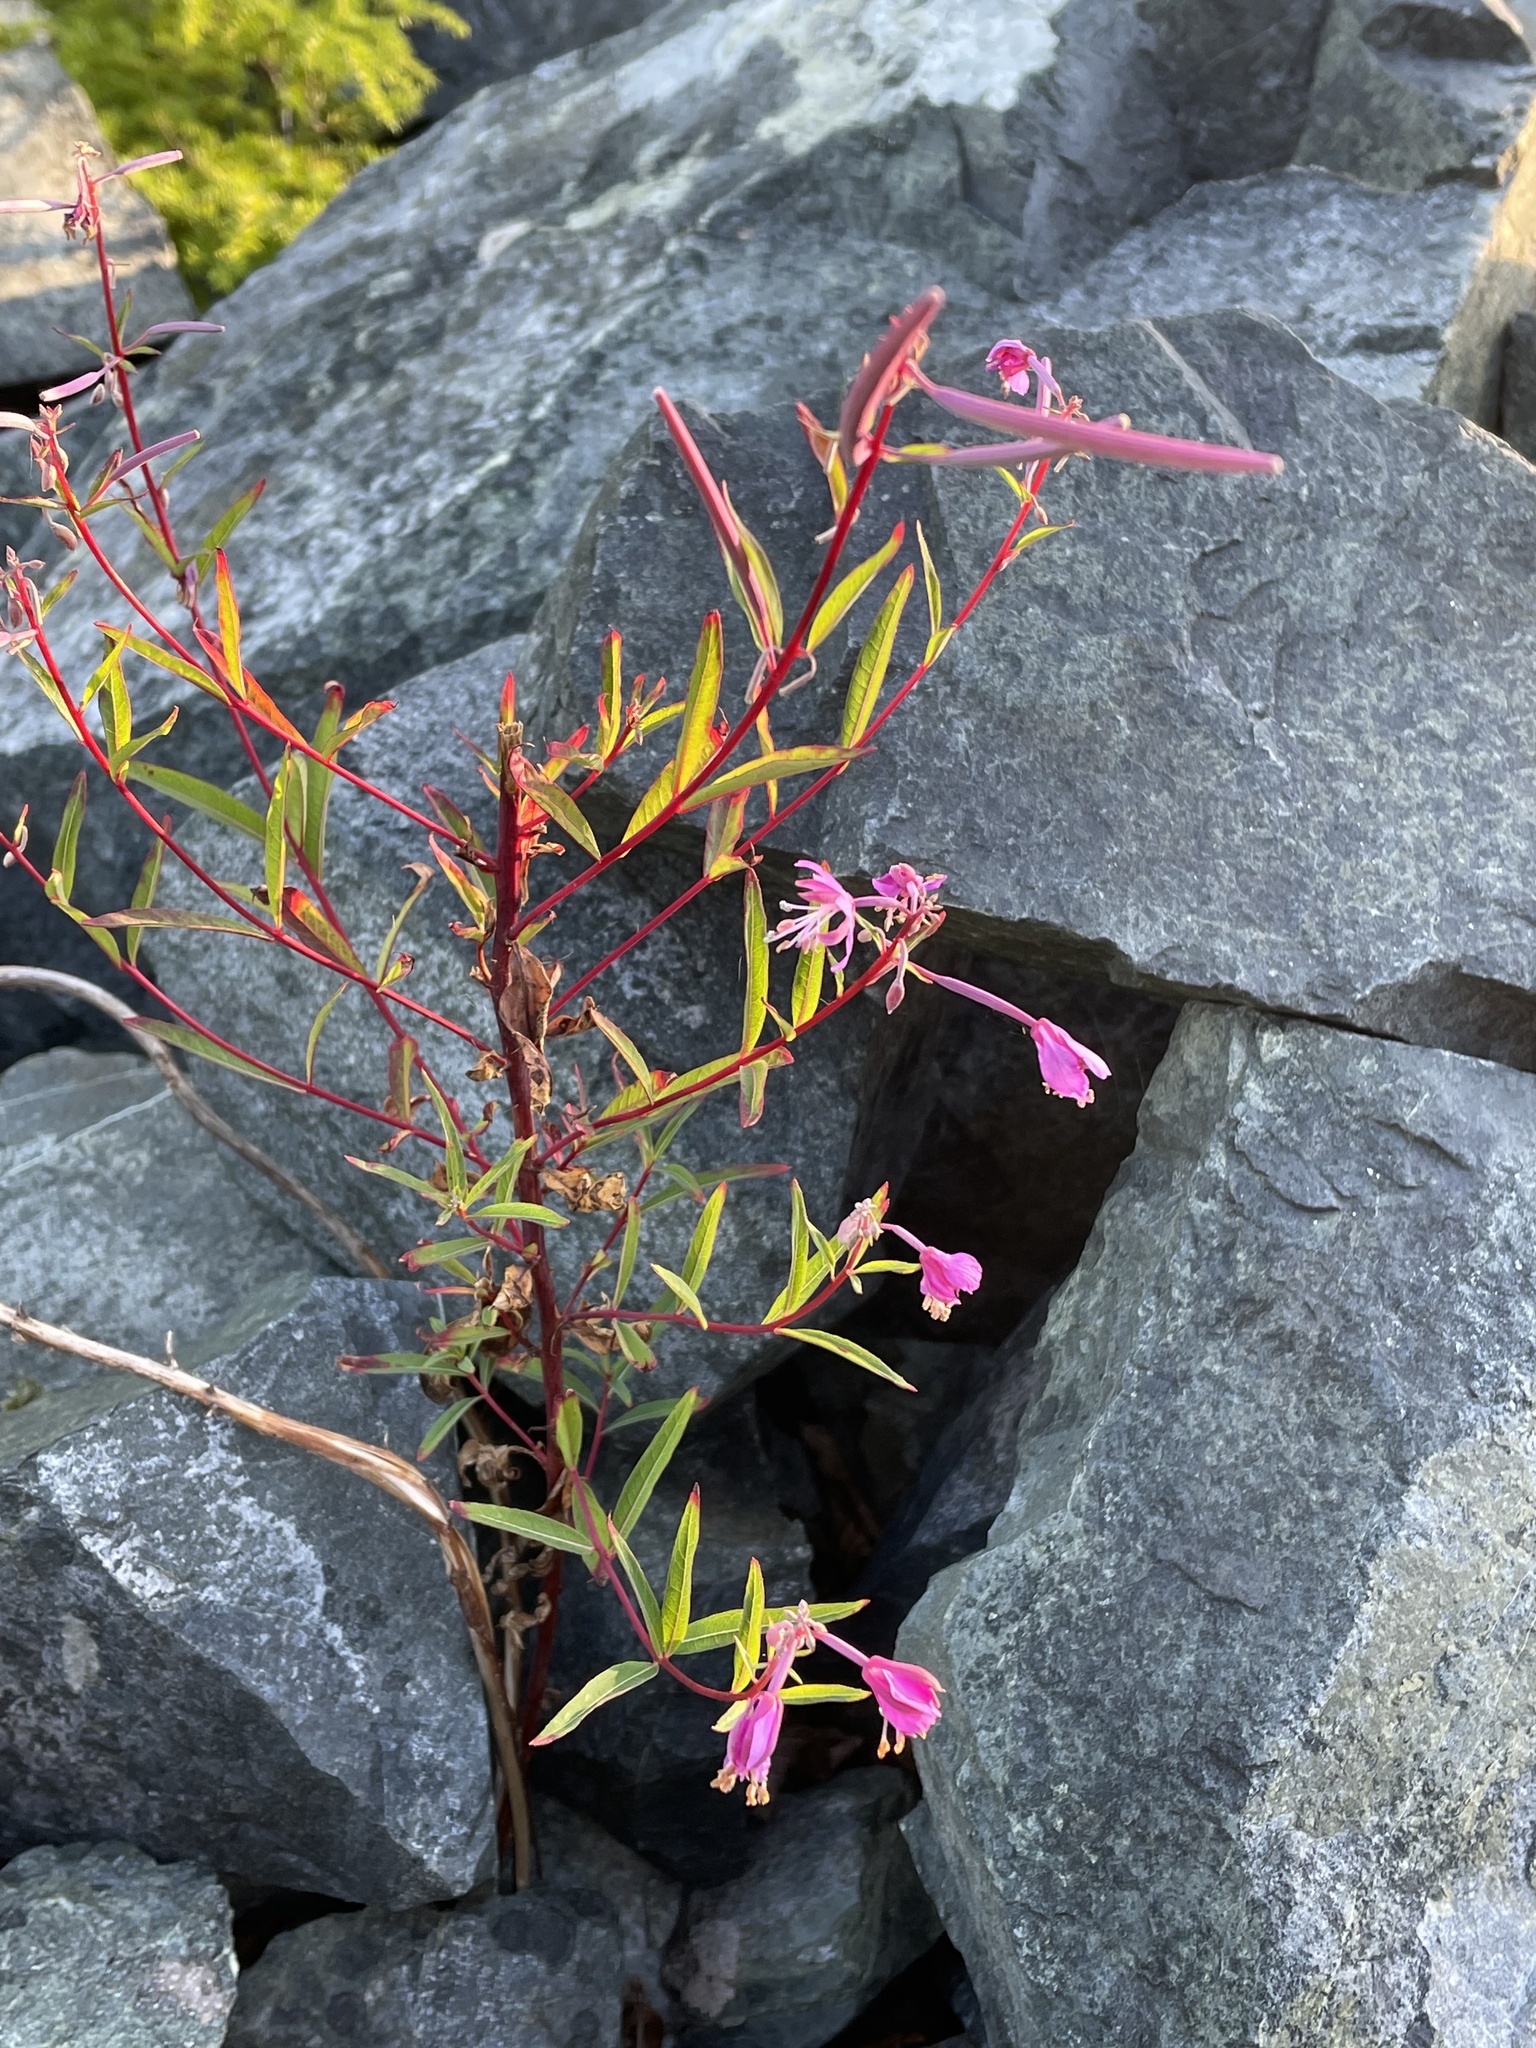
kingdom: Plantae
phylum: Tracheophyta
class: Magnoliopsida
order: Myrtales
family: Onagraceae
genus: Chamaenerion
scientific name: Chamaenerion angustifolium
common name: Fireweed
